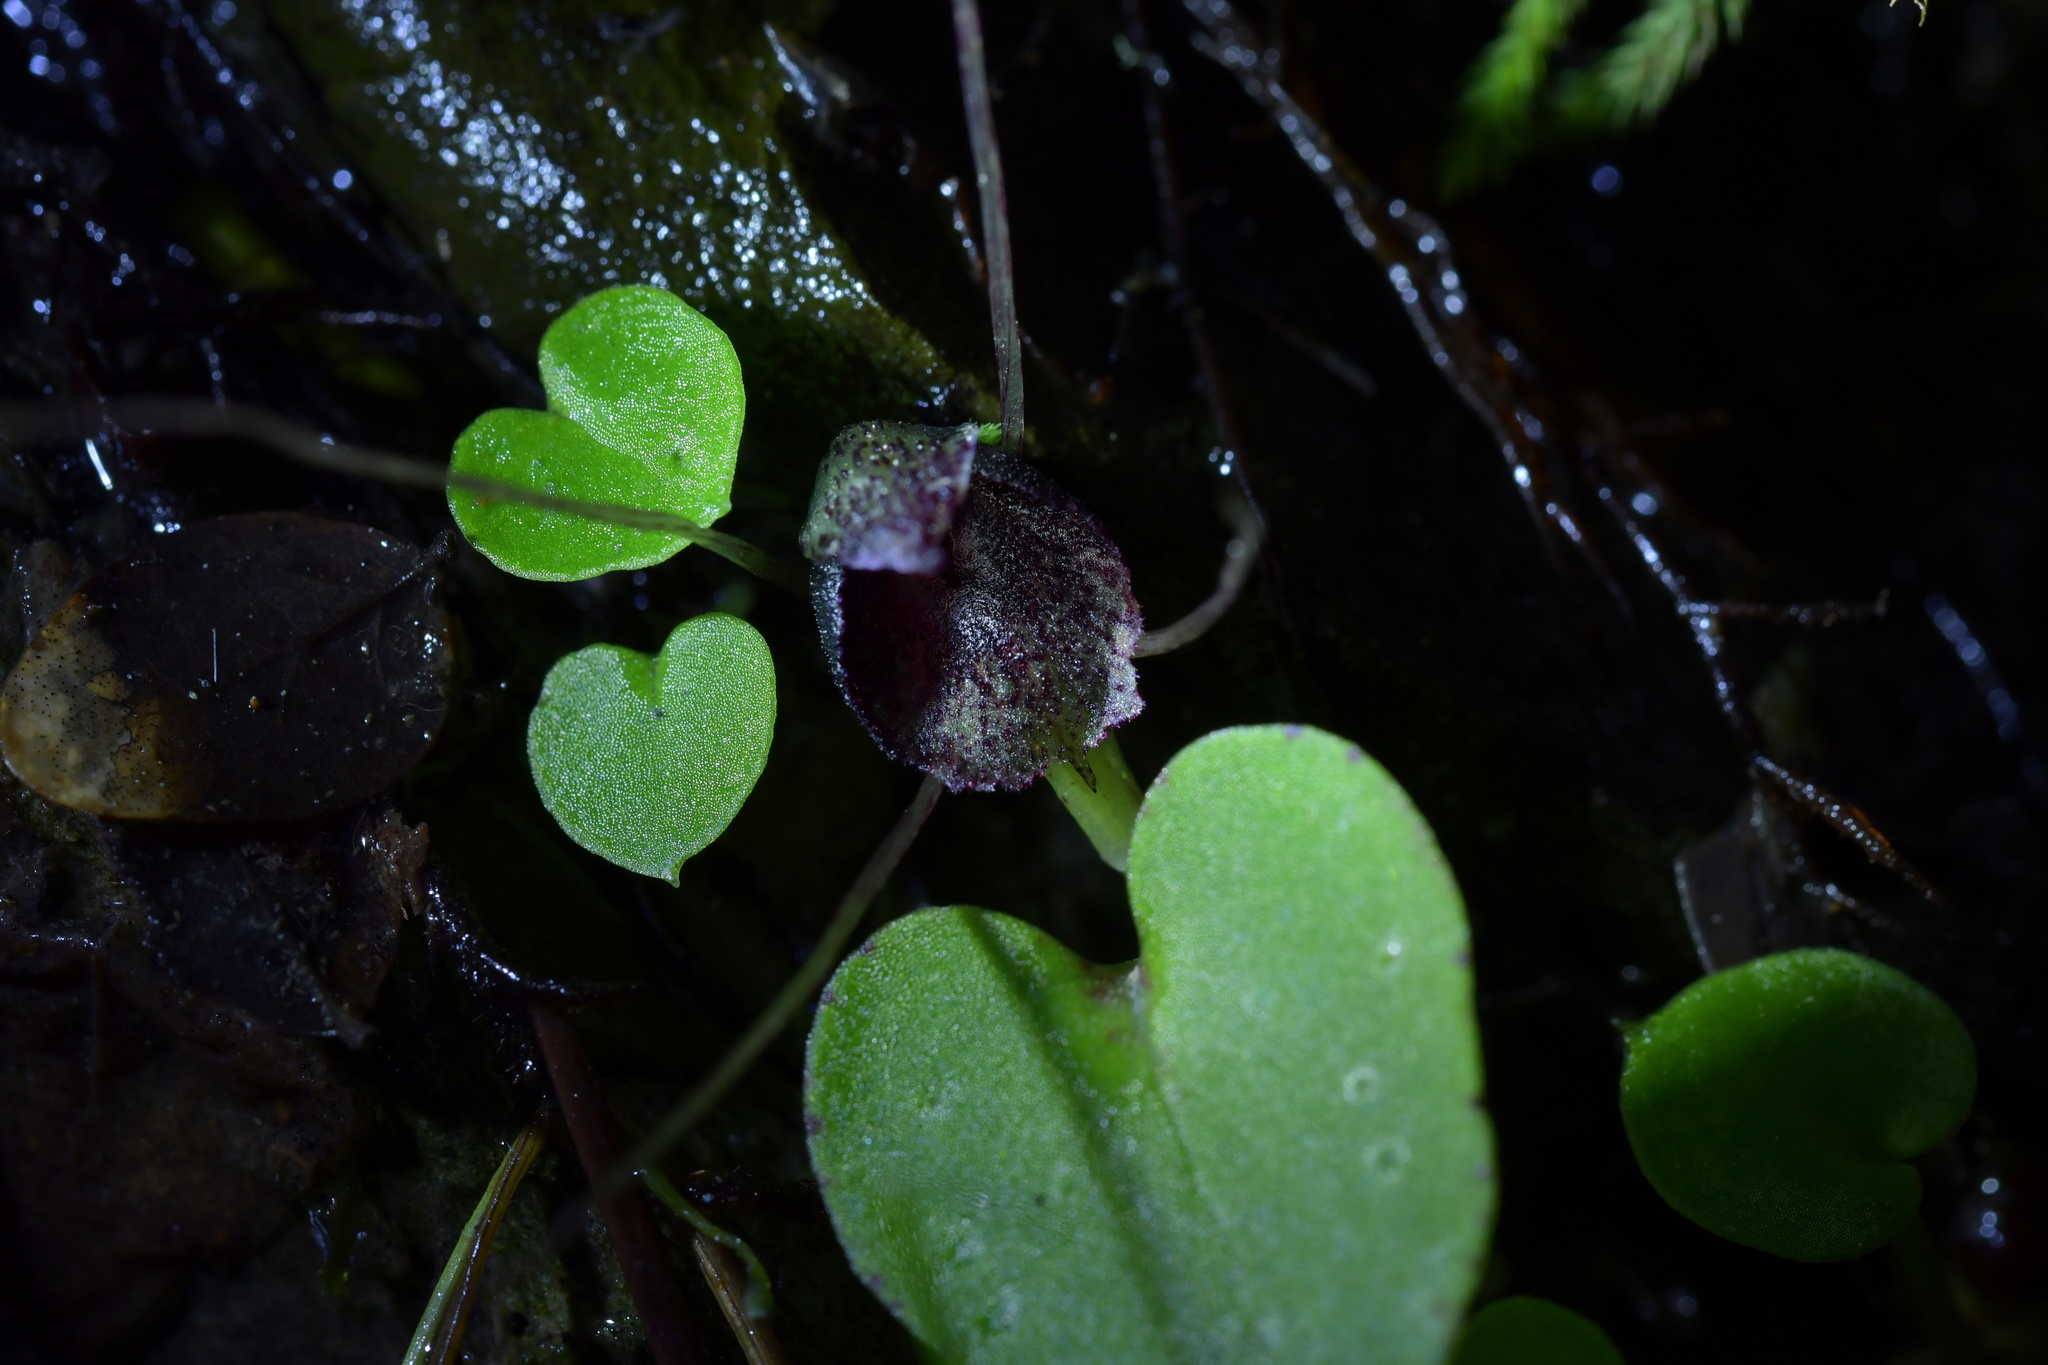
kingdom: Plantae
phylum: Tracheophyta
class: Liliopsida
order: Asparagales
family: Orchidaceae
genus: Corybas
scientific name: Corybas iridescens
